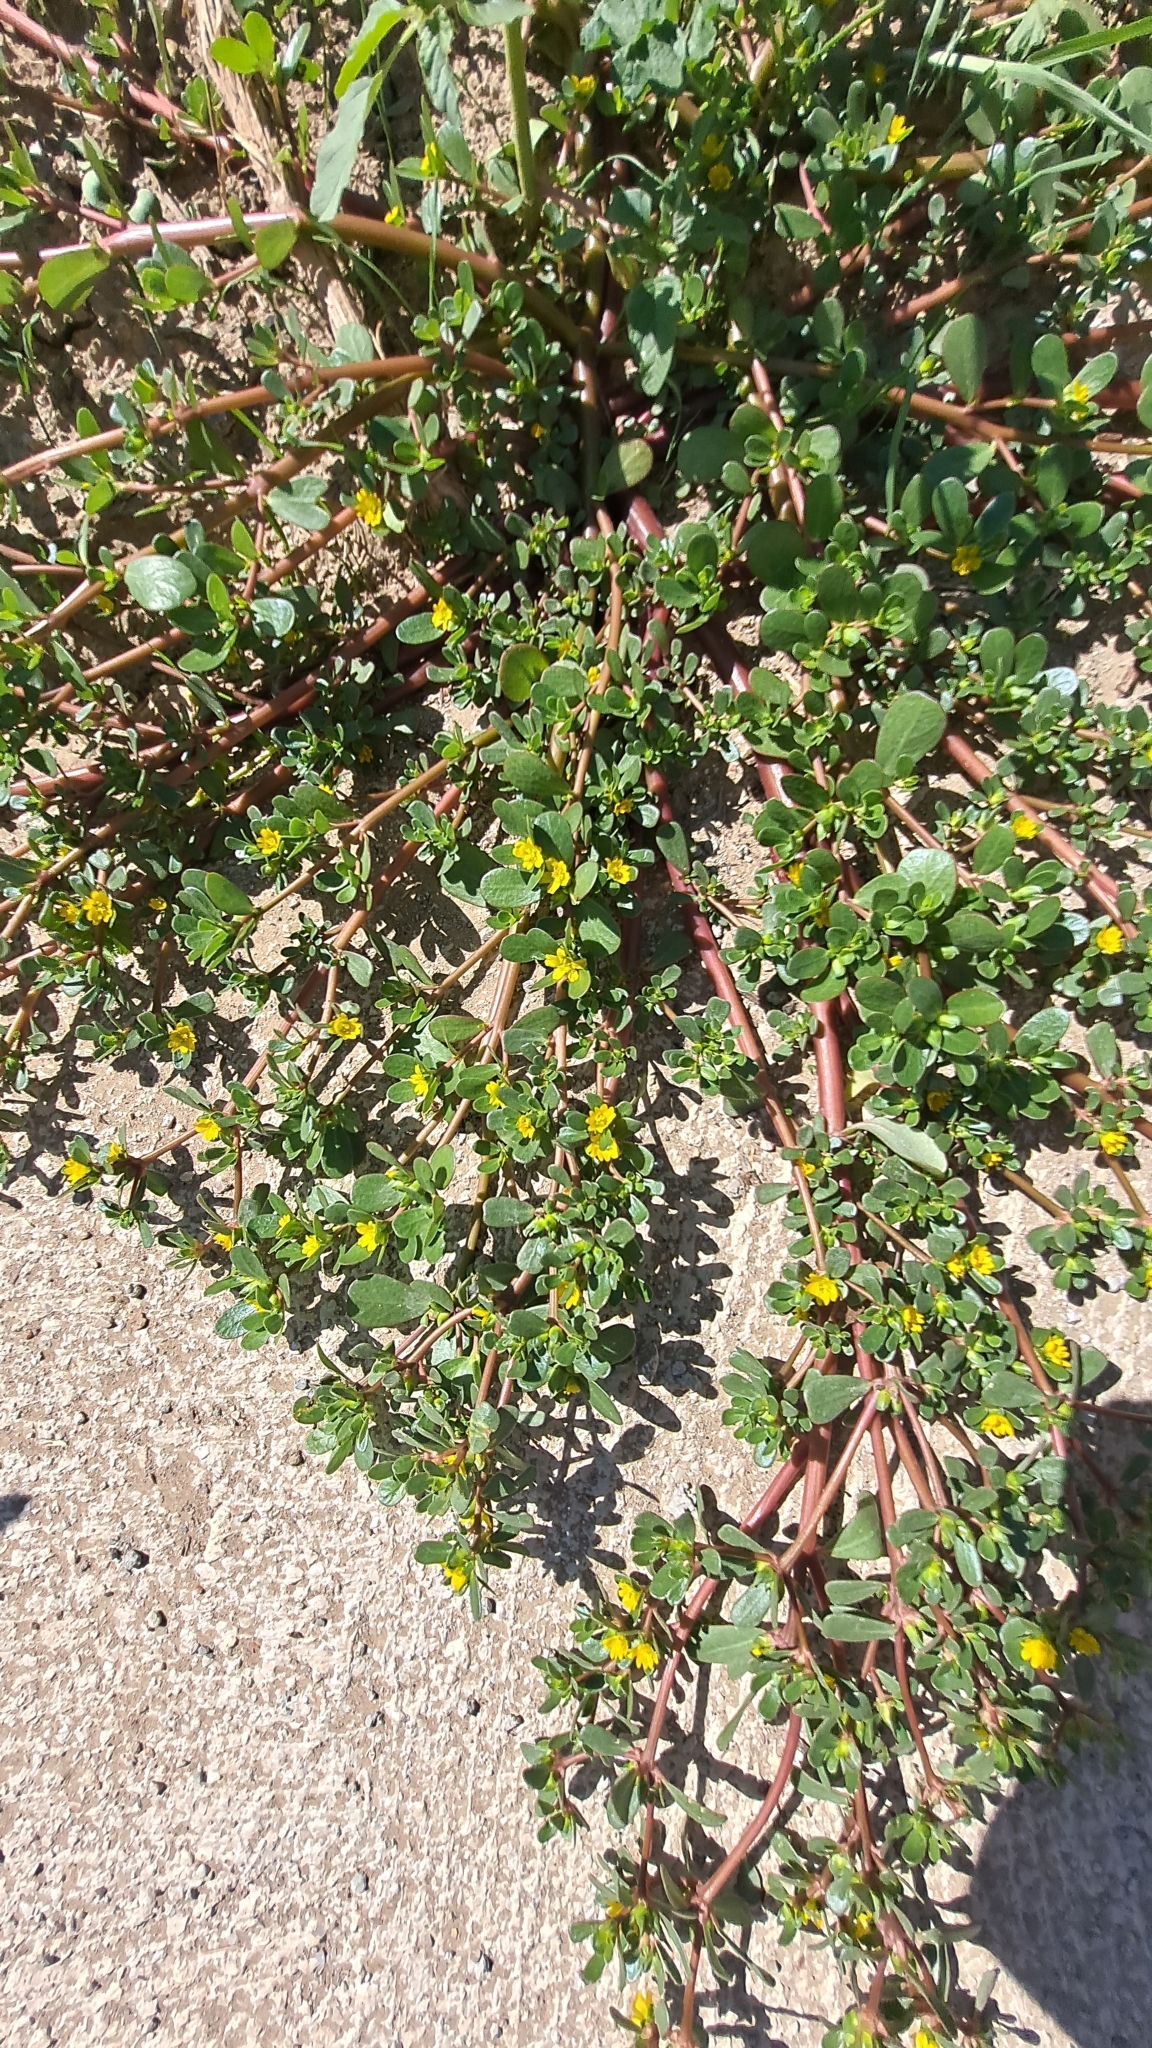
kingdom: Plantae
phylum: Tracheophyta
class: Magnoliopsida
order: Caryophyllales
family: Portulacaceae
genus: Portulaca
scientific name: Portulaca oleracea
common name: Common purslane
